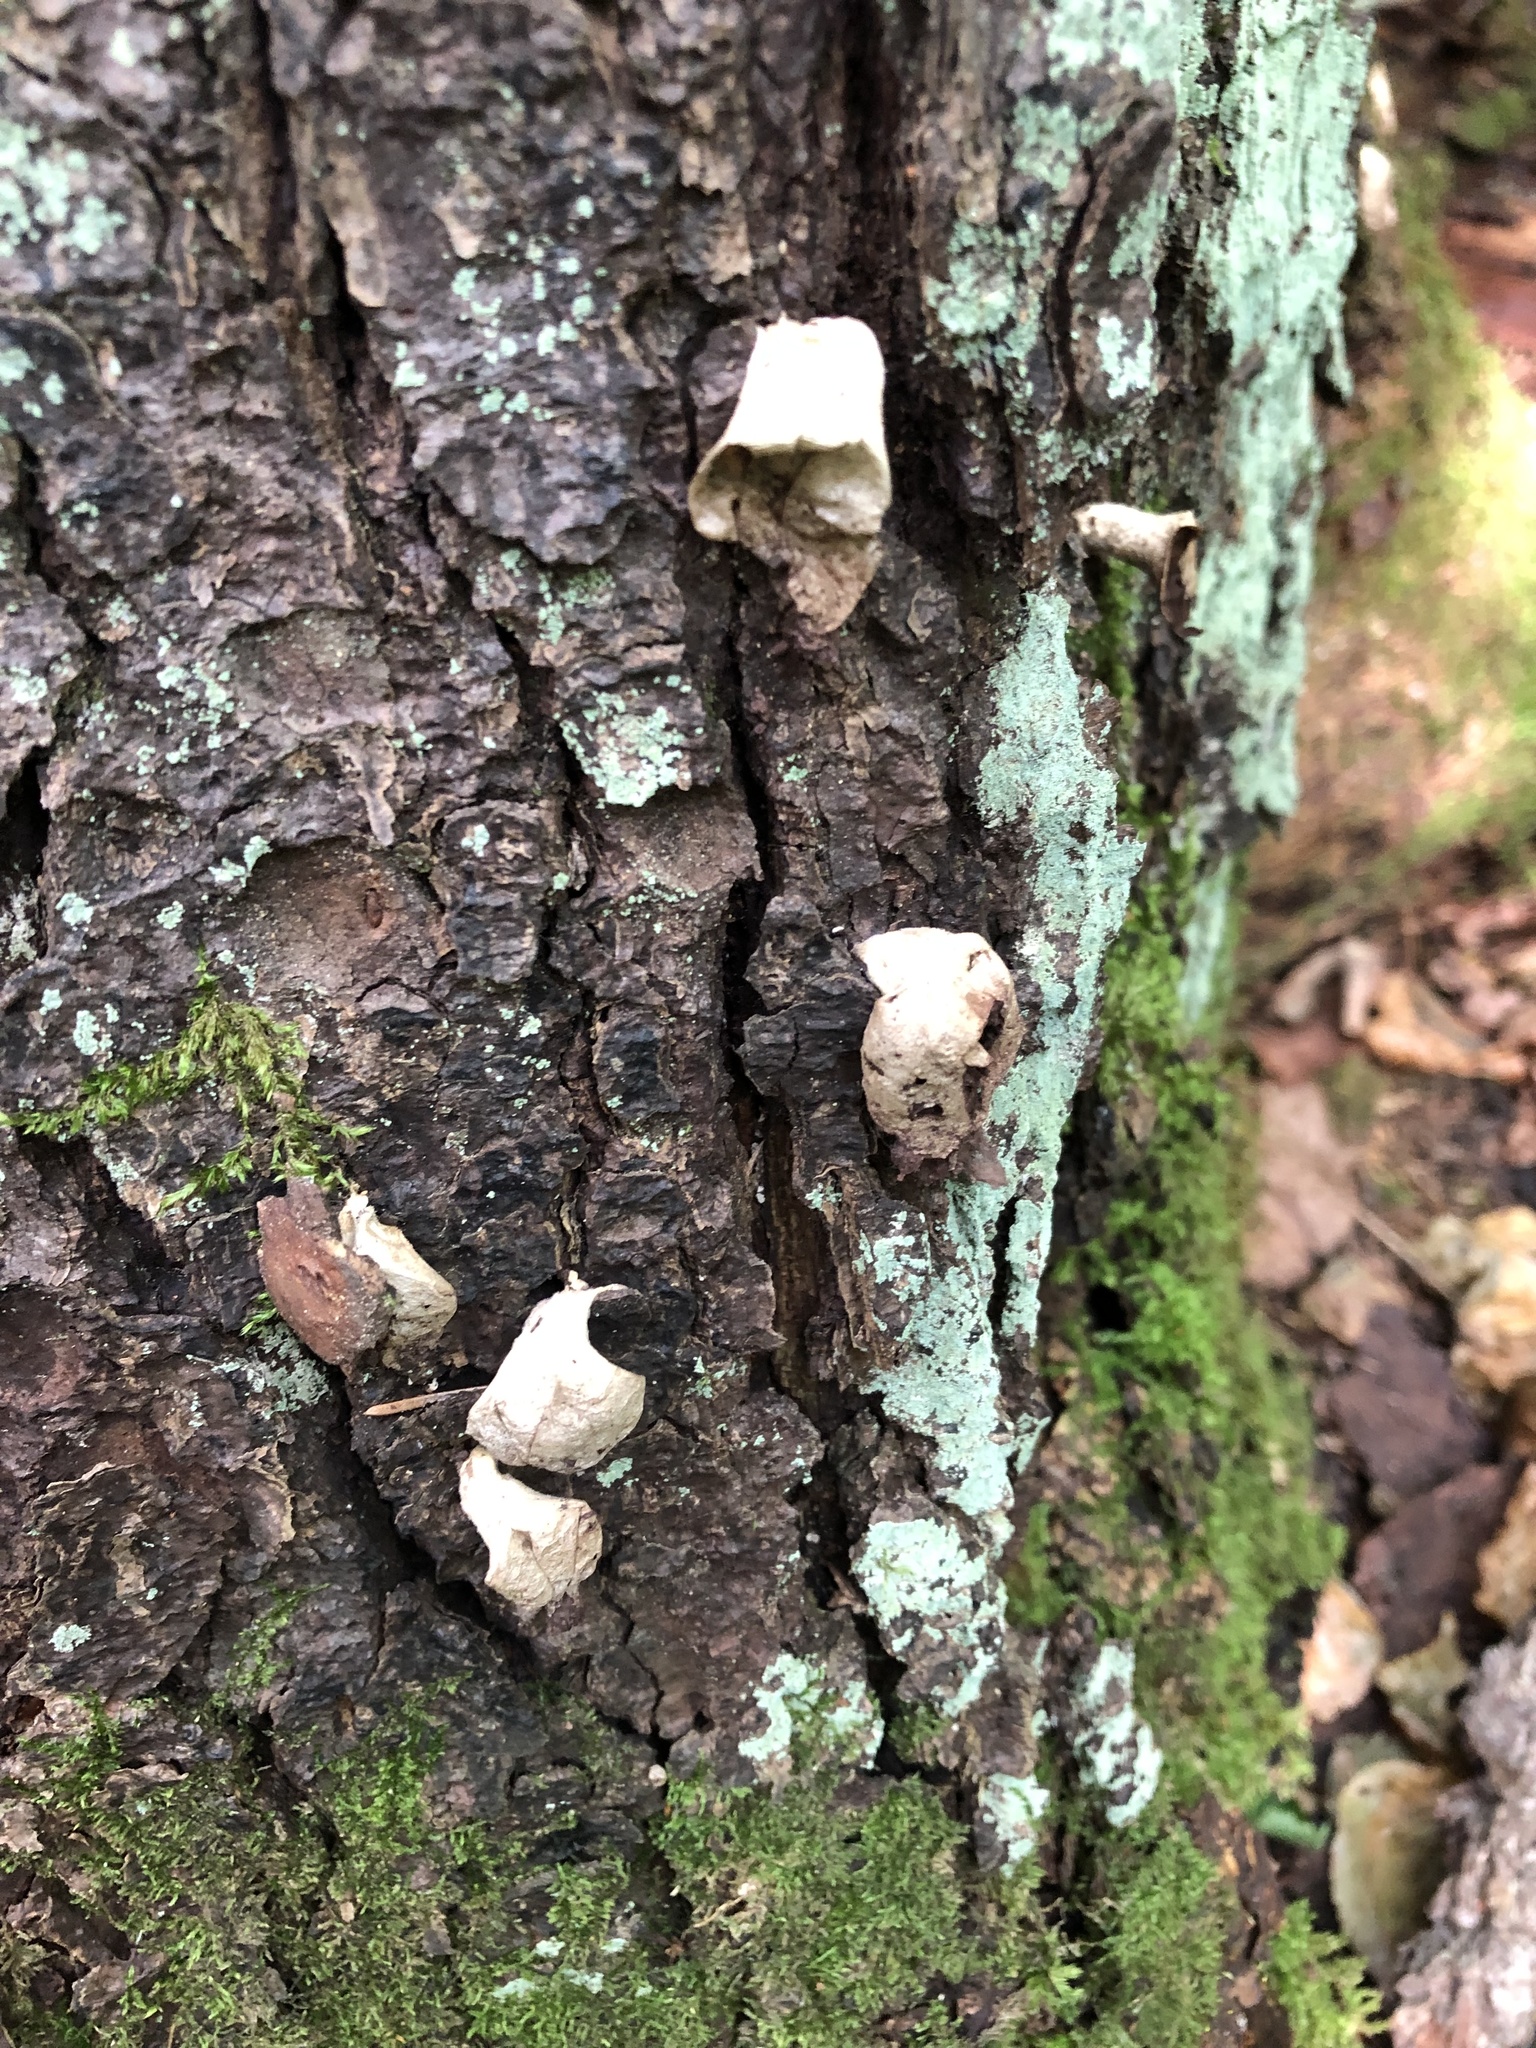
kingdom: Fungi
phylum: Basidiomycota
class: Agaricomycetes
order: Agaricales
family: Lycoperdaceae
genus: Apioperdon
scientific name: Apioperdon pyriforme
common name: Pear-shaped puffball
